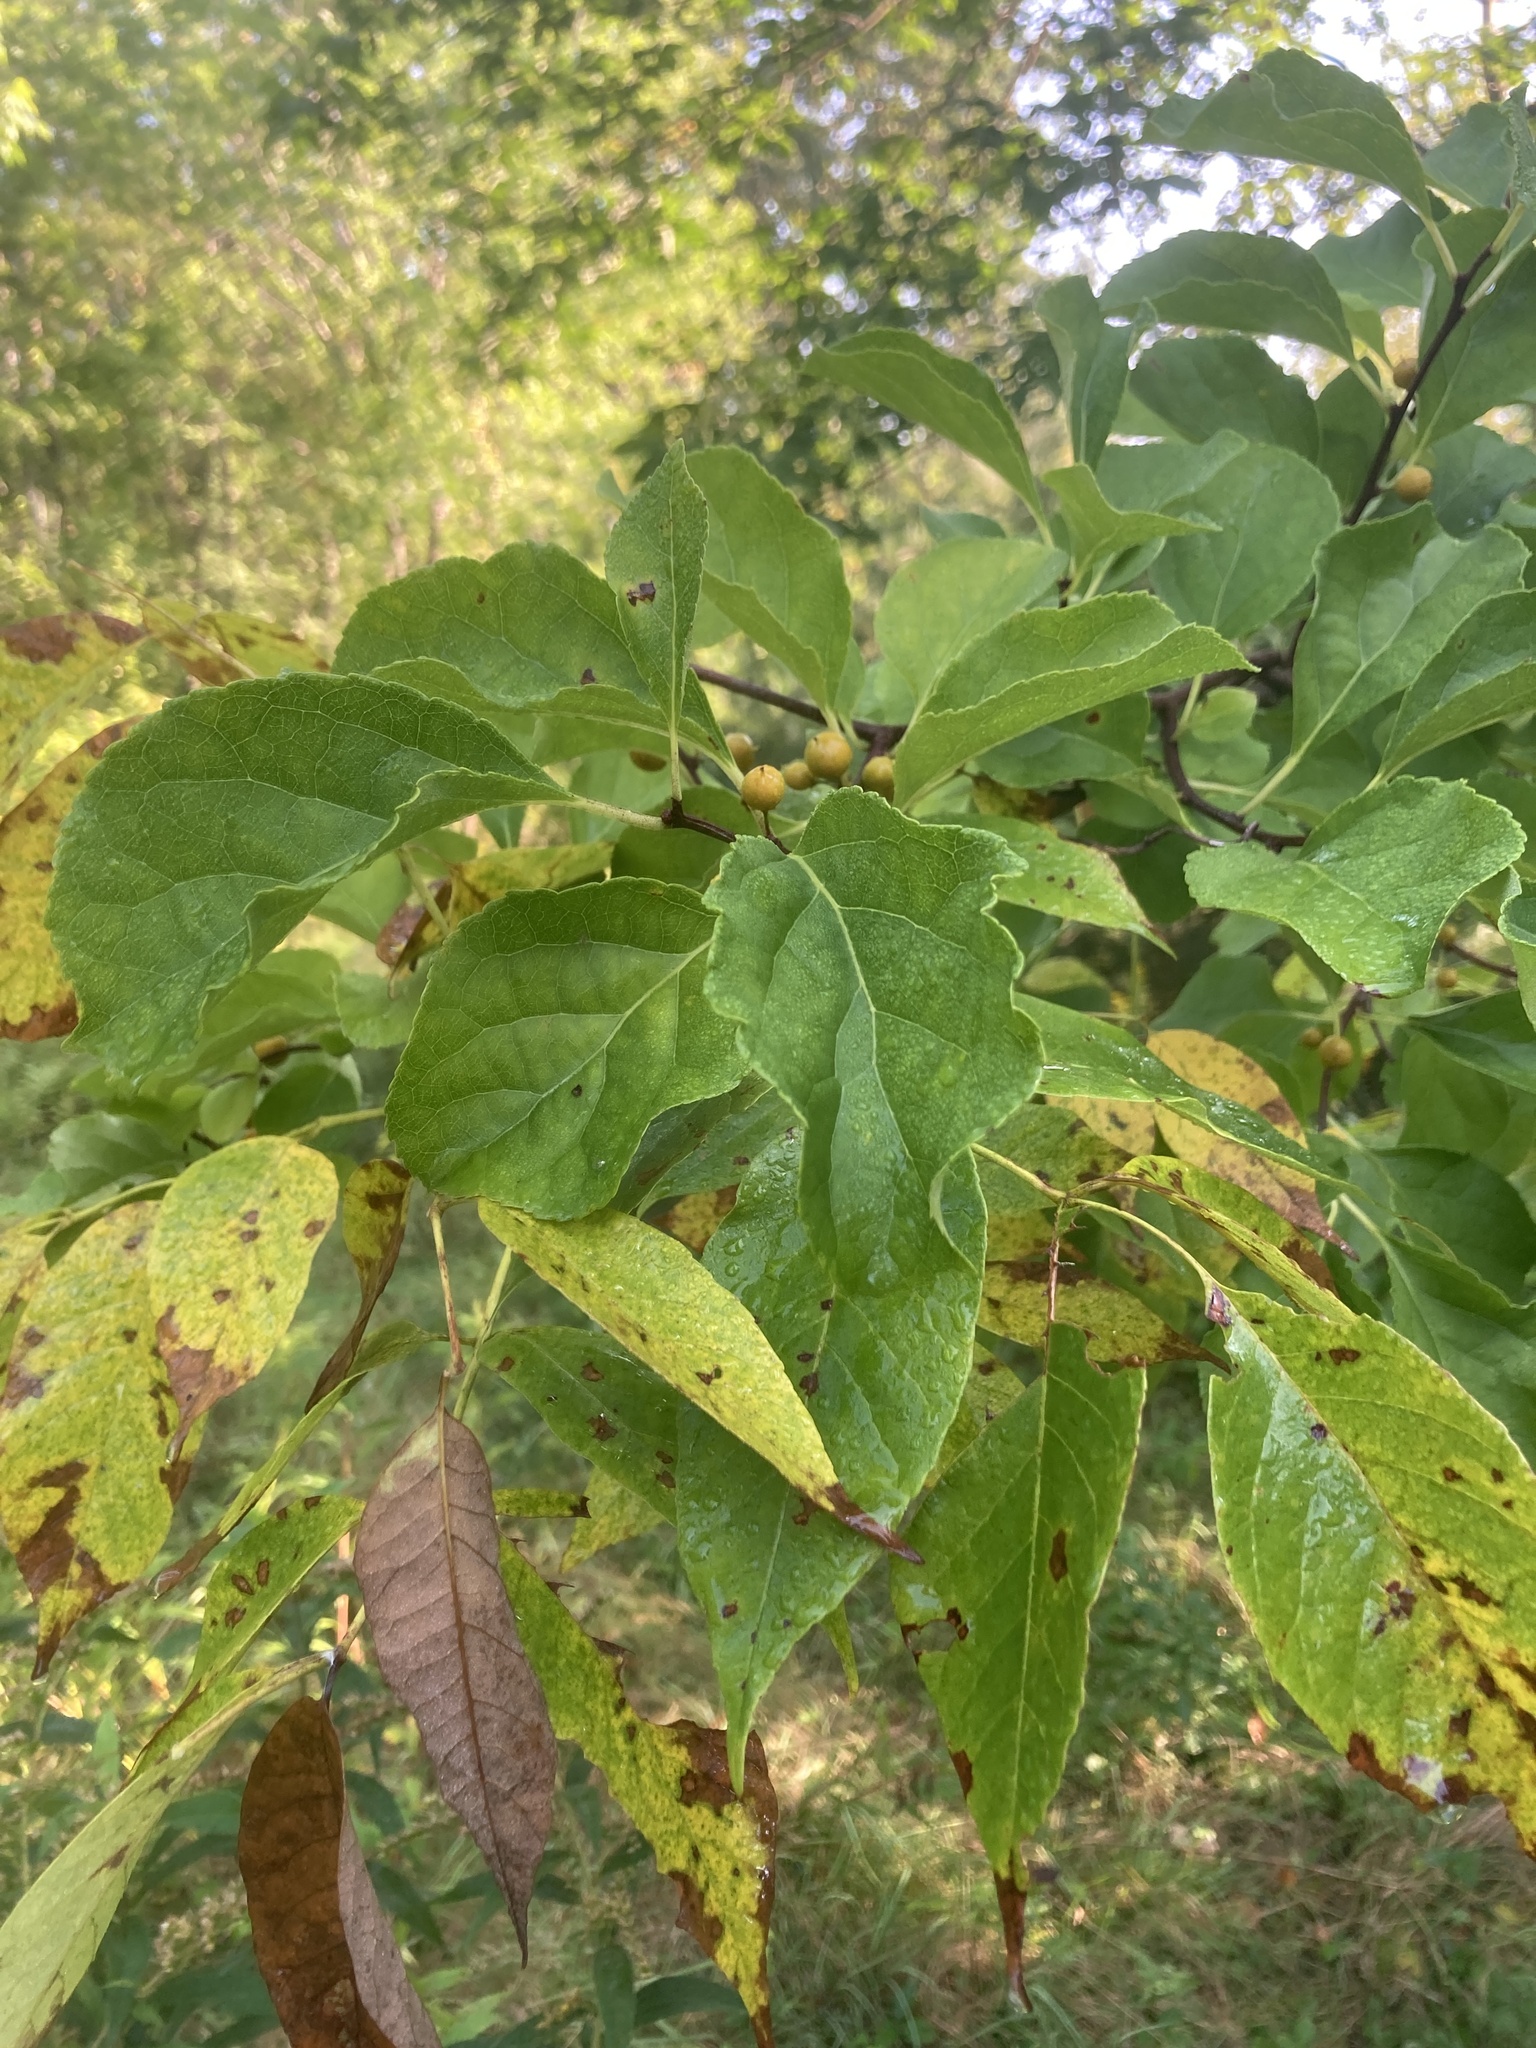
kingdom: Plantae
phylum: Tracheophyta
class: Magnoliopsida
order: Rosales
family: Rosaceae
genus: Malus
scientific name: Malus domestica
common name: Apple
